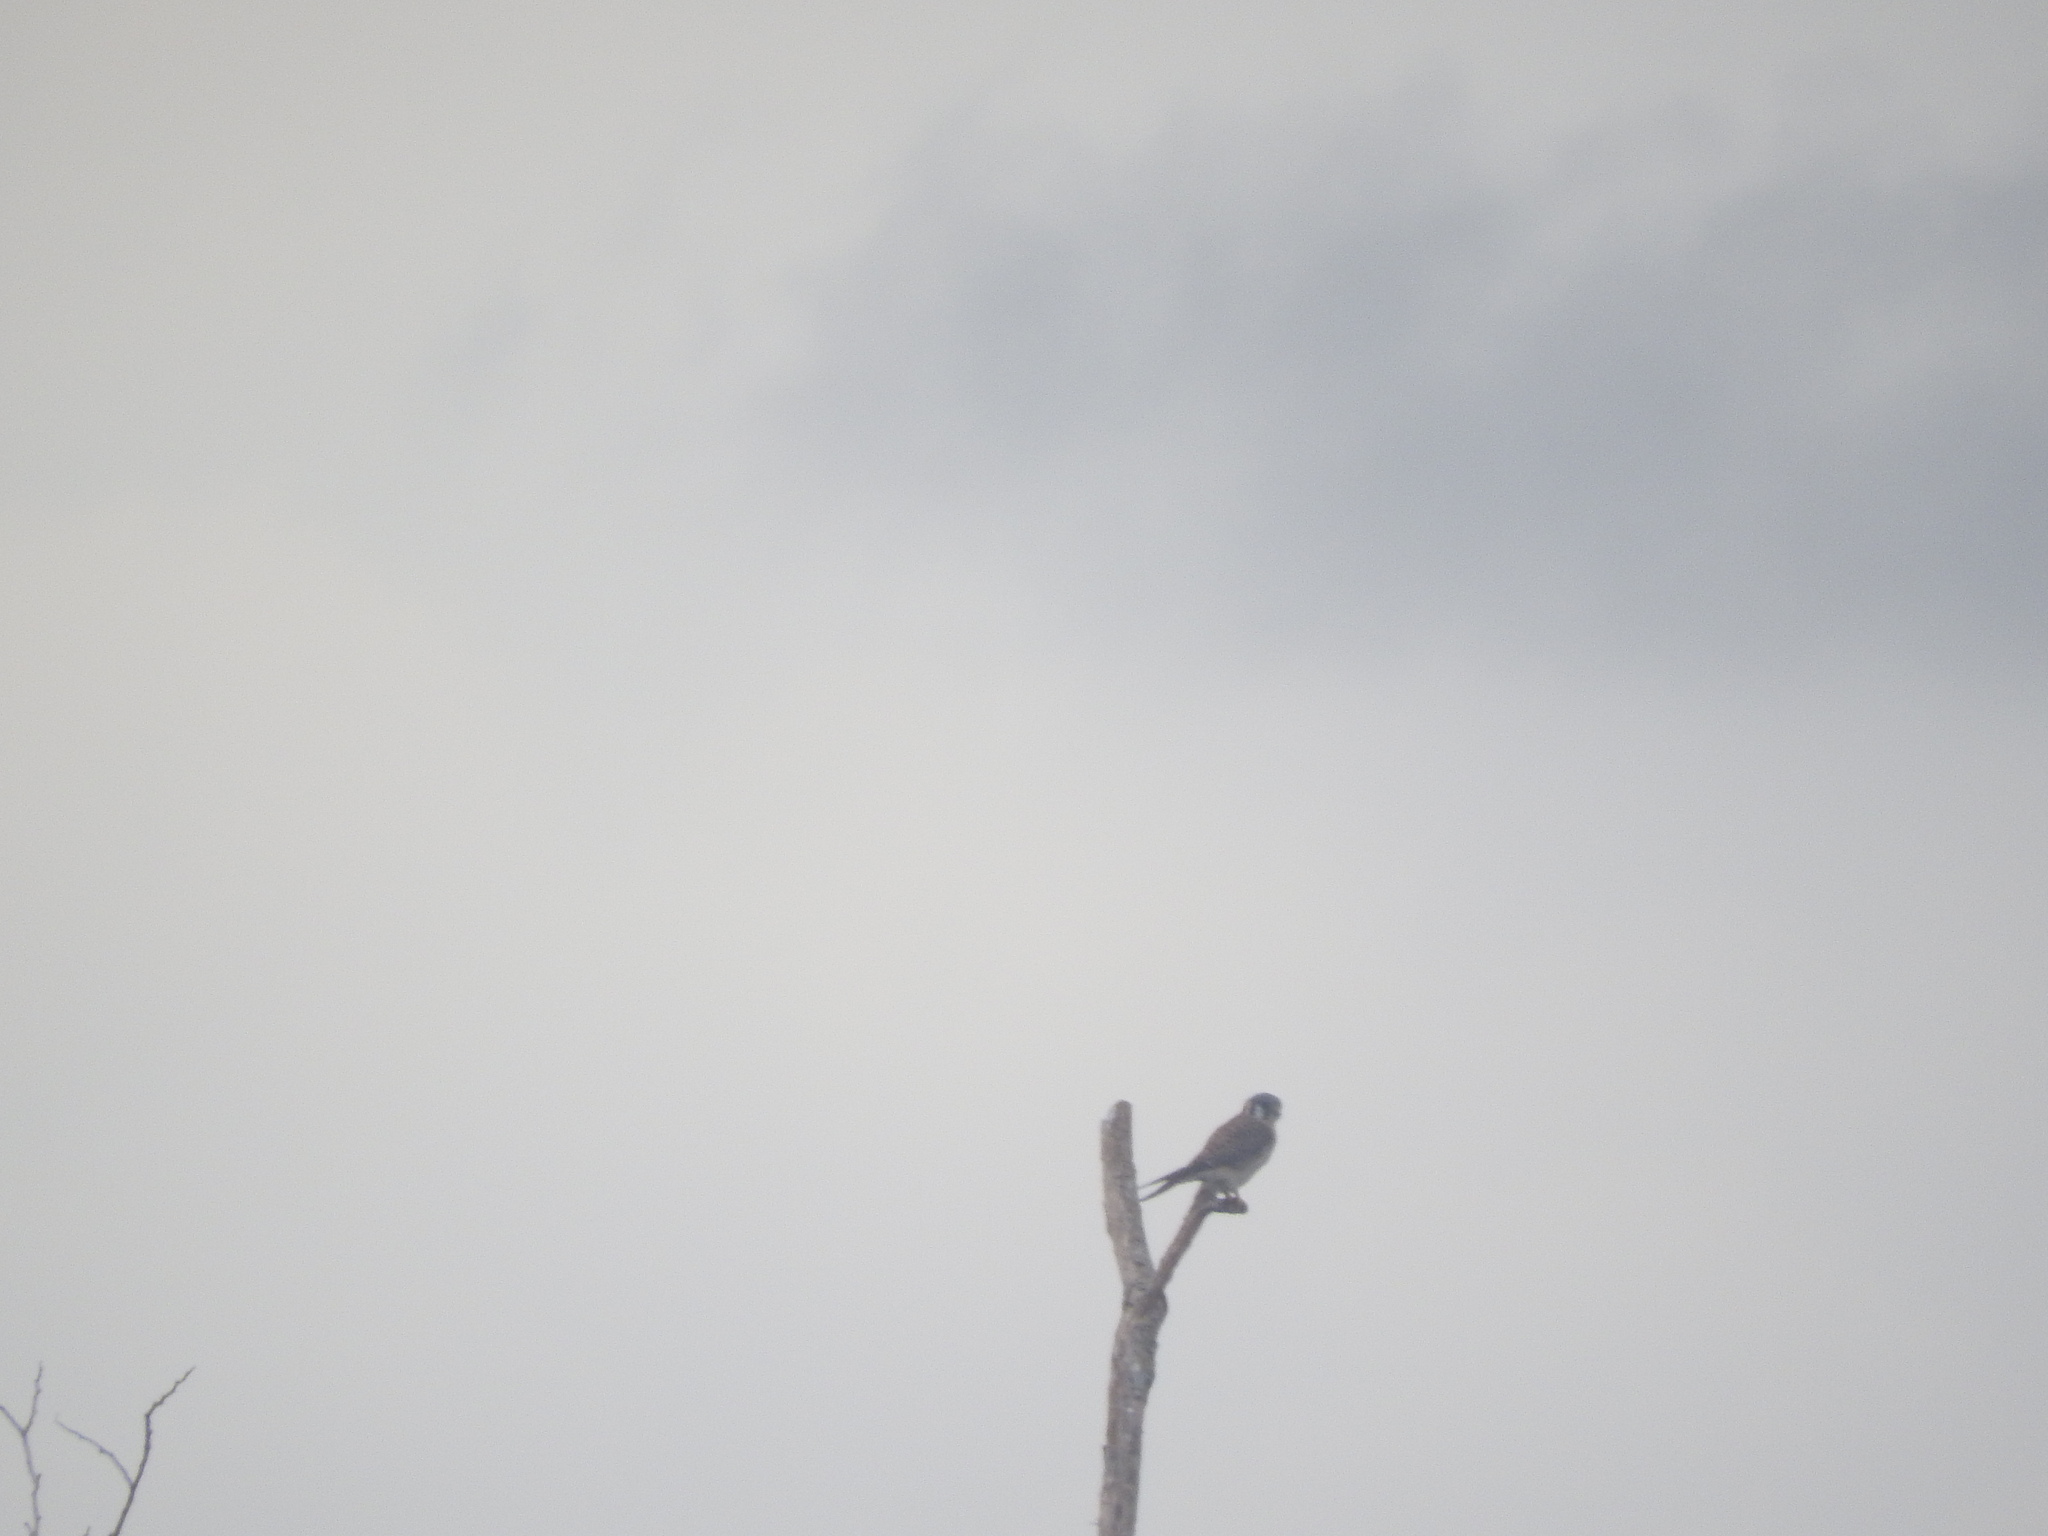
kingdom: Animalia
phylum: Chordata
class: Aves
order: Falconiformes
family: Falconidae
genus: Falco
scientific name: Falco sparverius
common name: American kestrel
